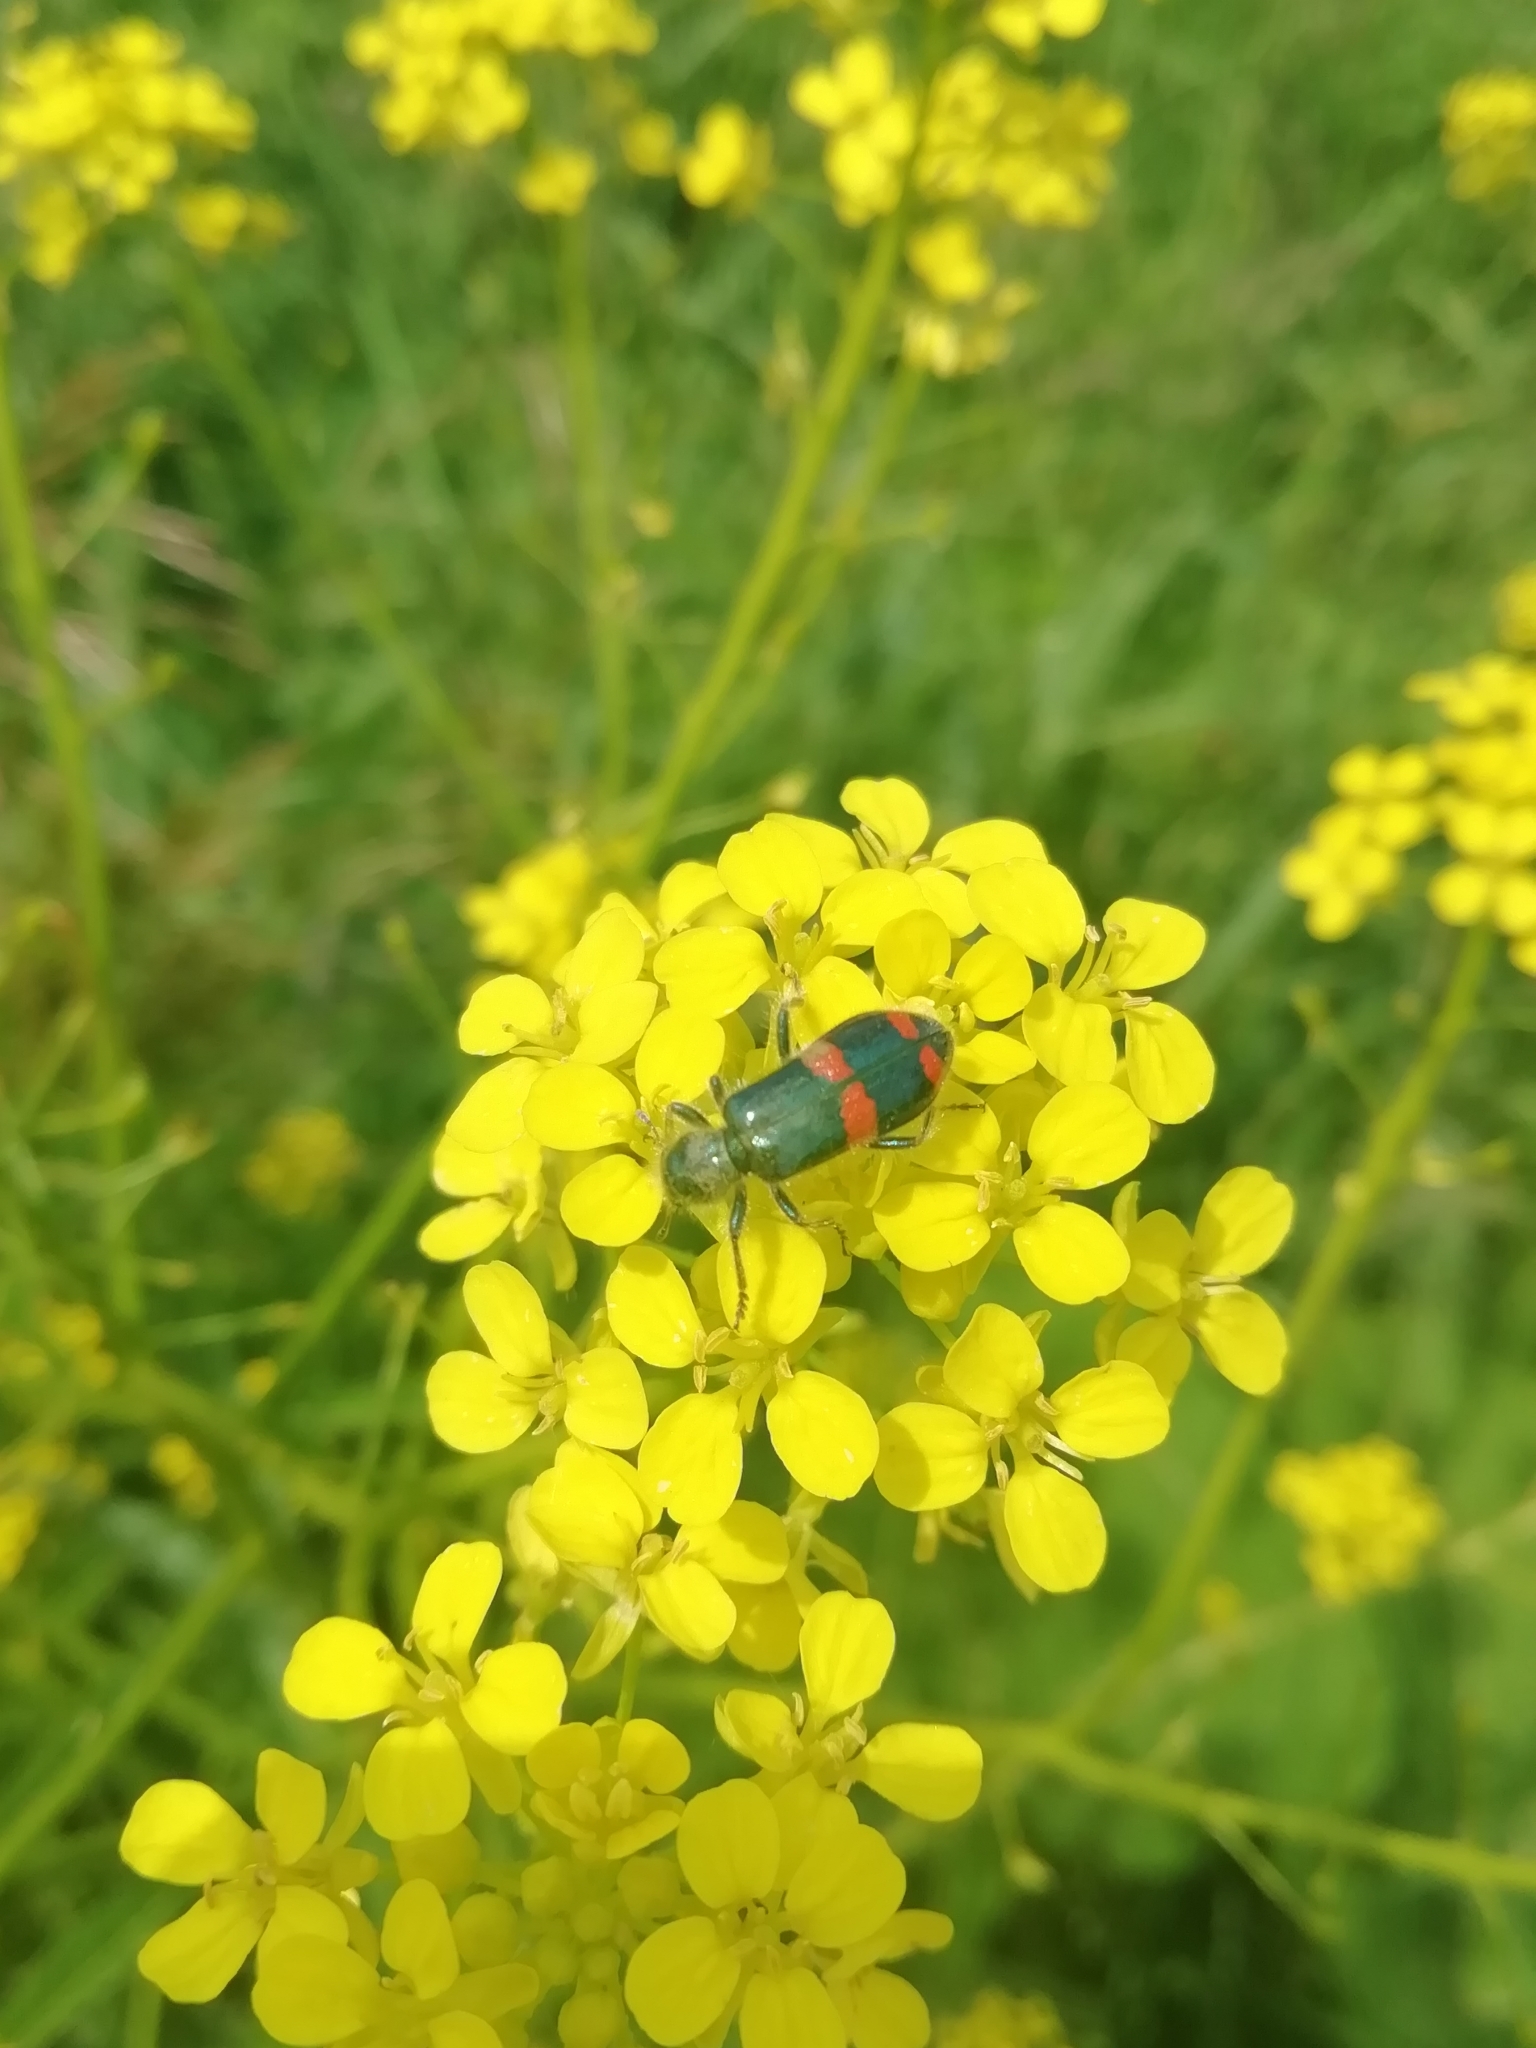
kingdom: Animalia
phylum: Arthropoda
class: Insecta
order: Coleoptera
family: Cleridae
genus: Trichodes
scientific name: Trichodes
